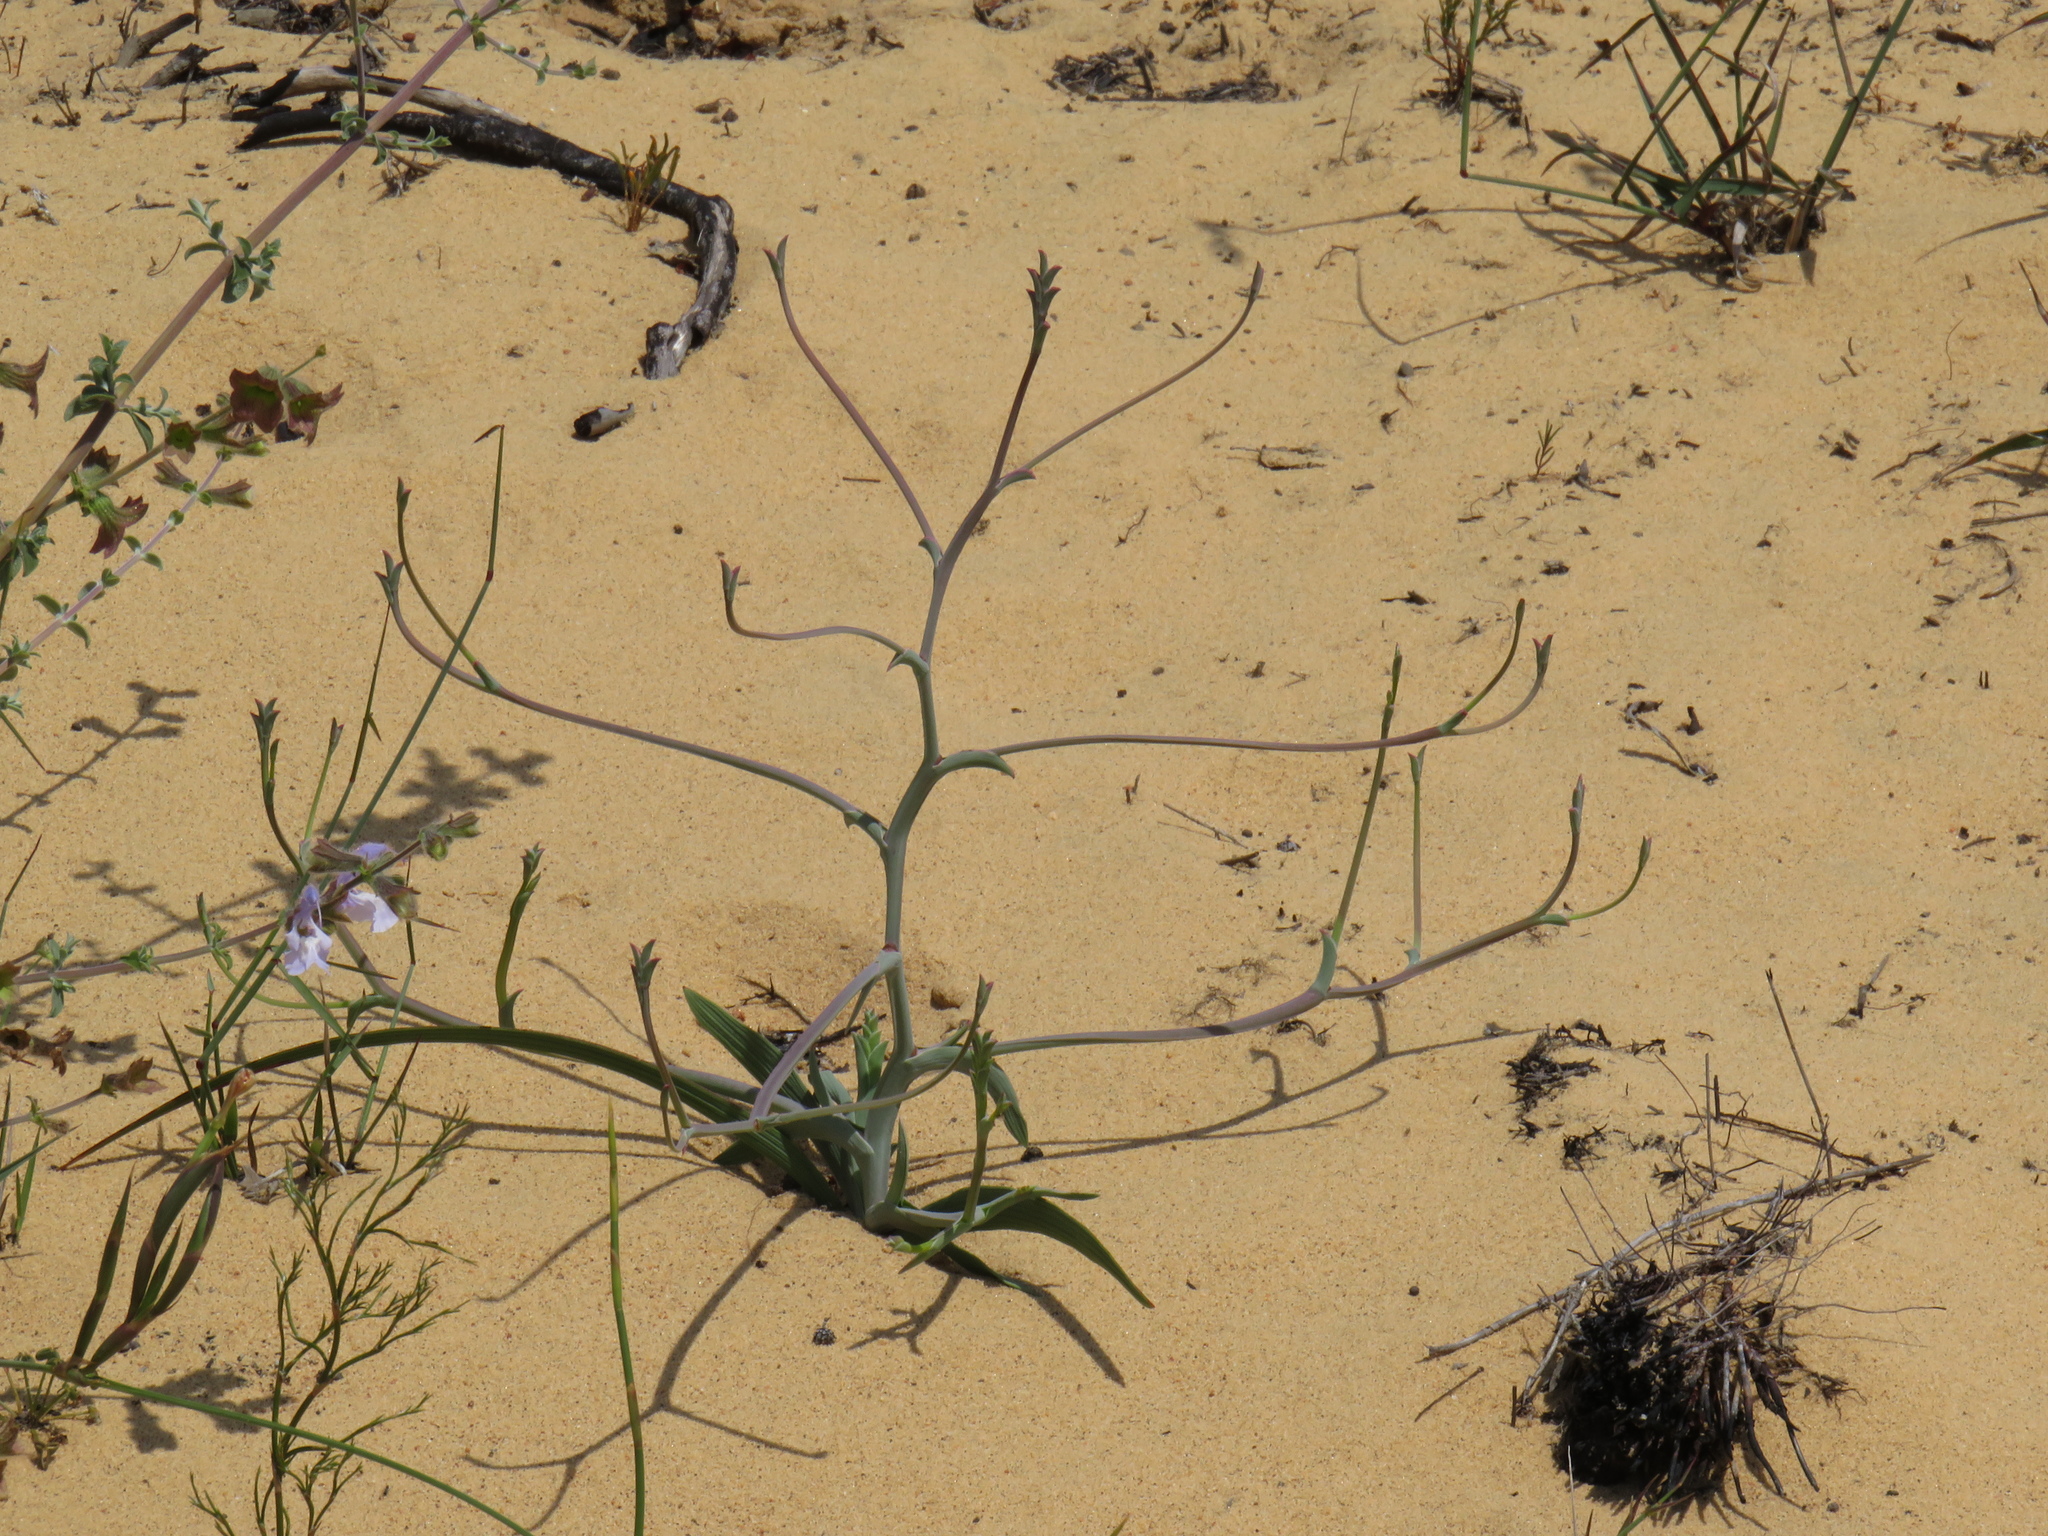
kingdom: Plantae
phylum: Tracheophyta
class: Liliopsida
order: Asparagales
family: Iridaceae
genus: Lapeirousia
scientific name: Lapeirousia anceps
